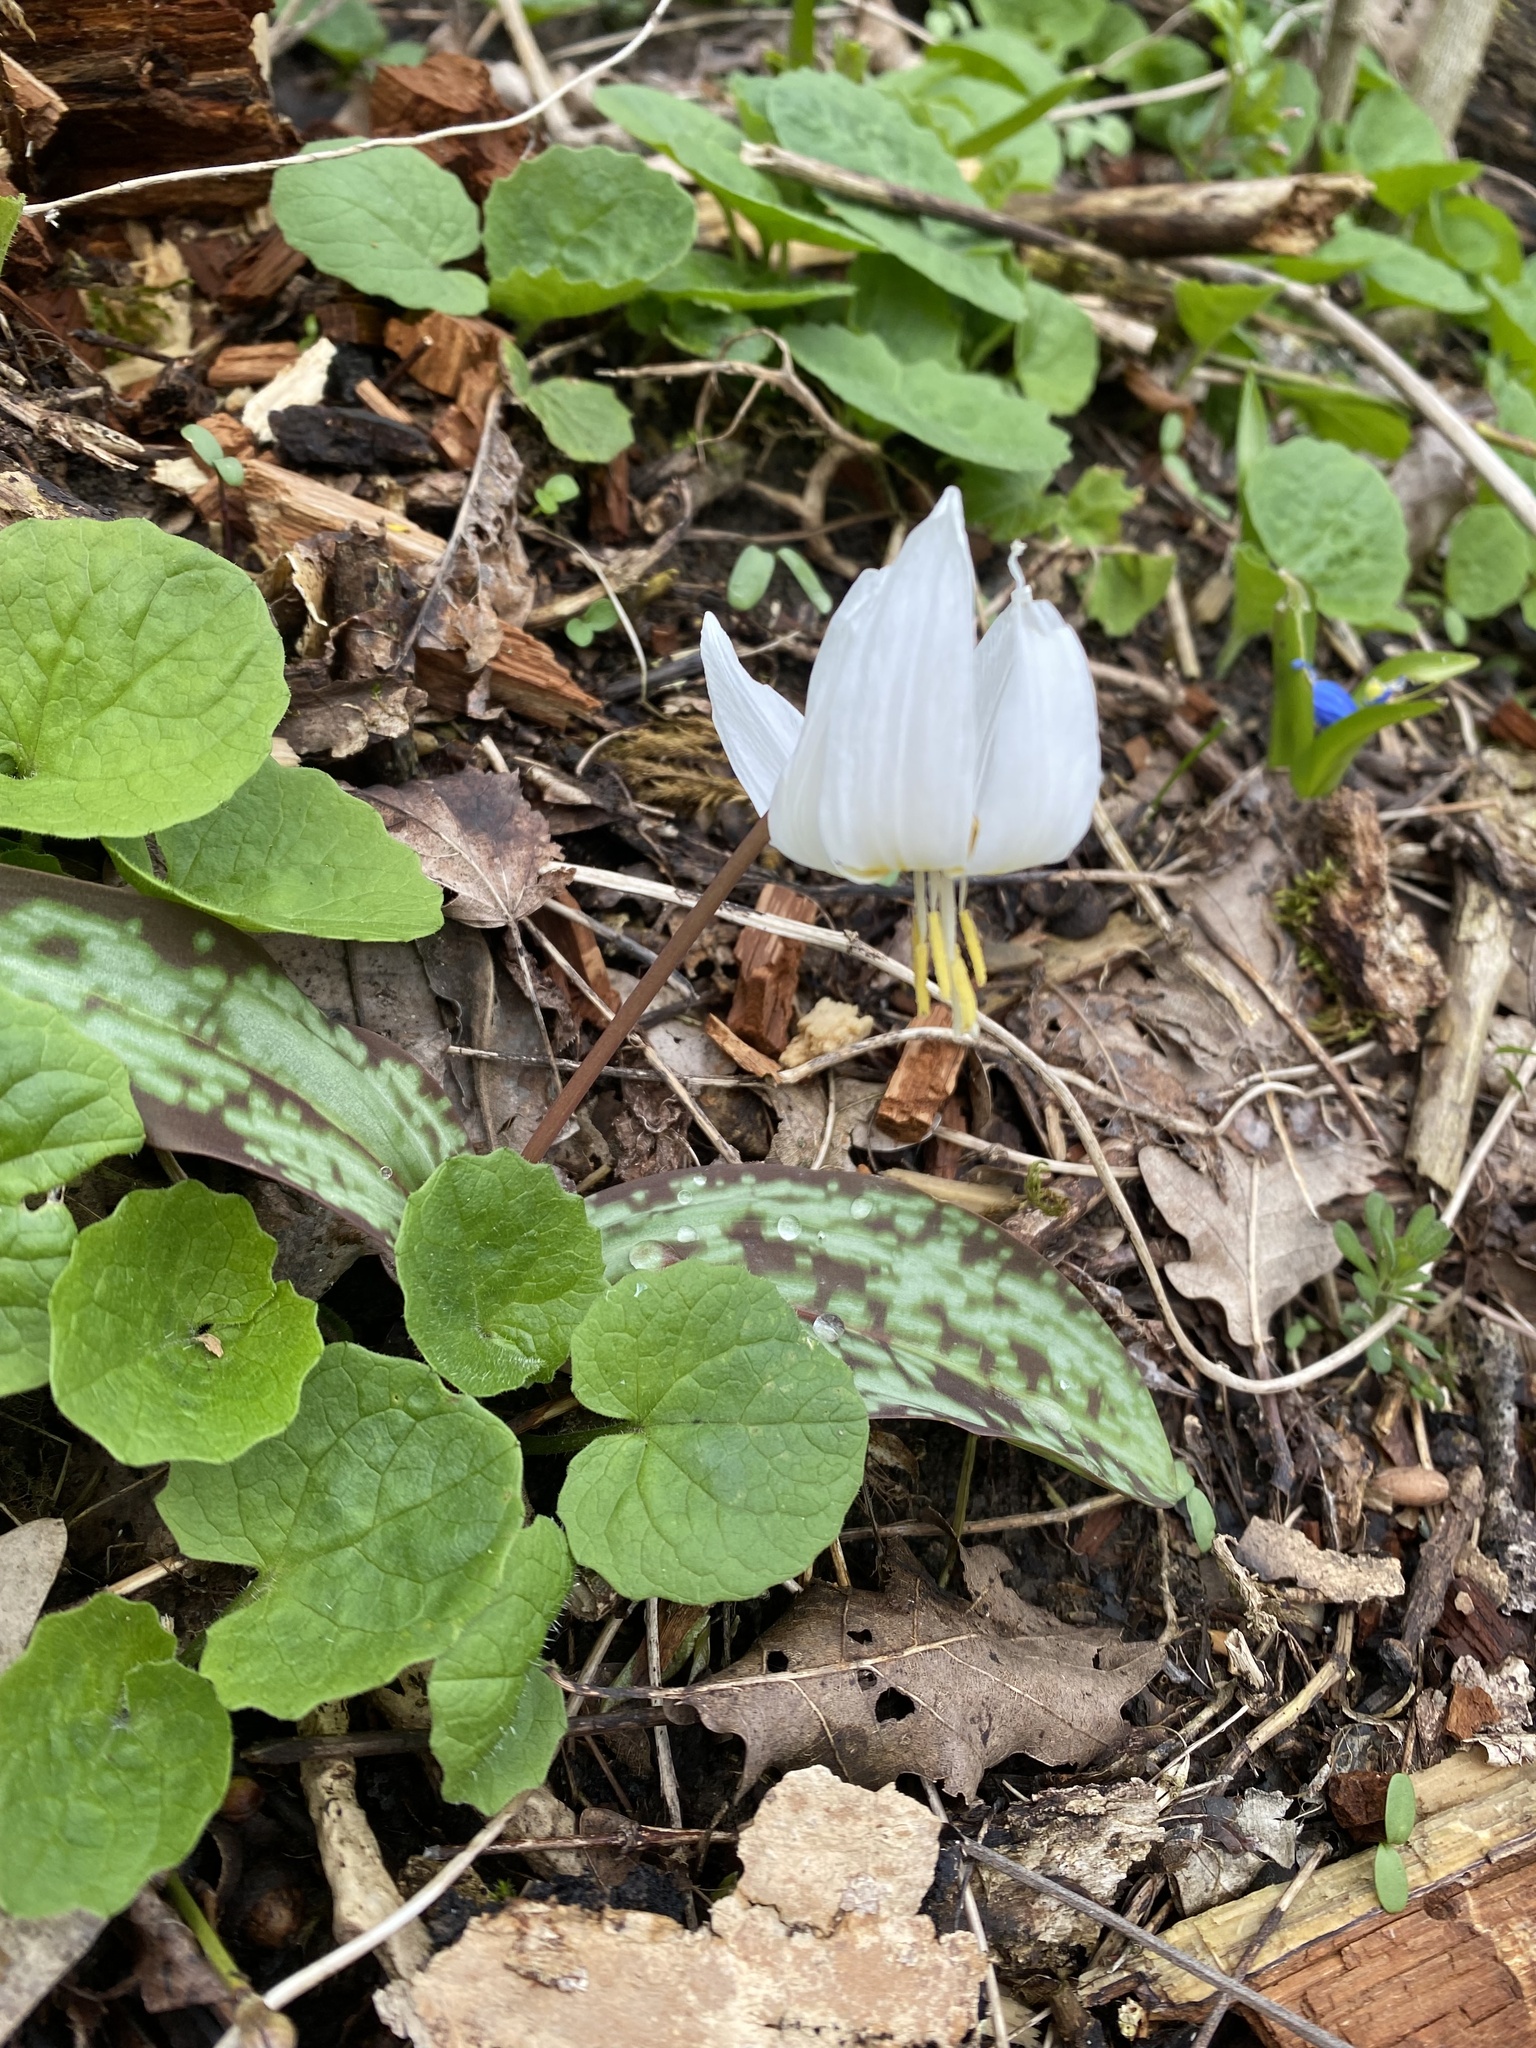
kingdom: Plantae
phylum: Tracheophyta
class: Liliopsida
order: Liliales
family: Liliaceae
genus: Erythronium
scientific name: Erythronium caucasicum
